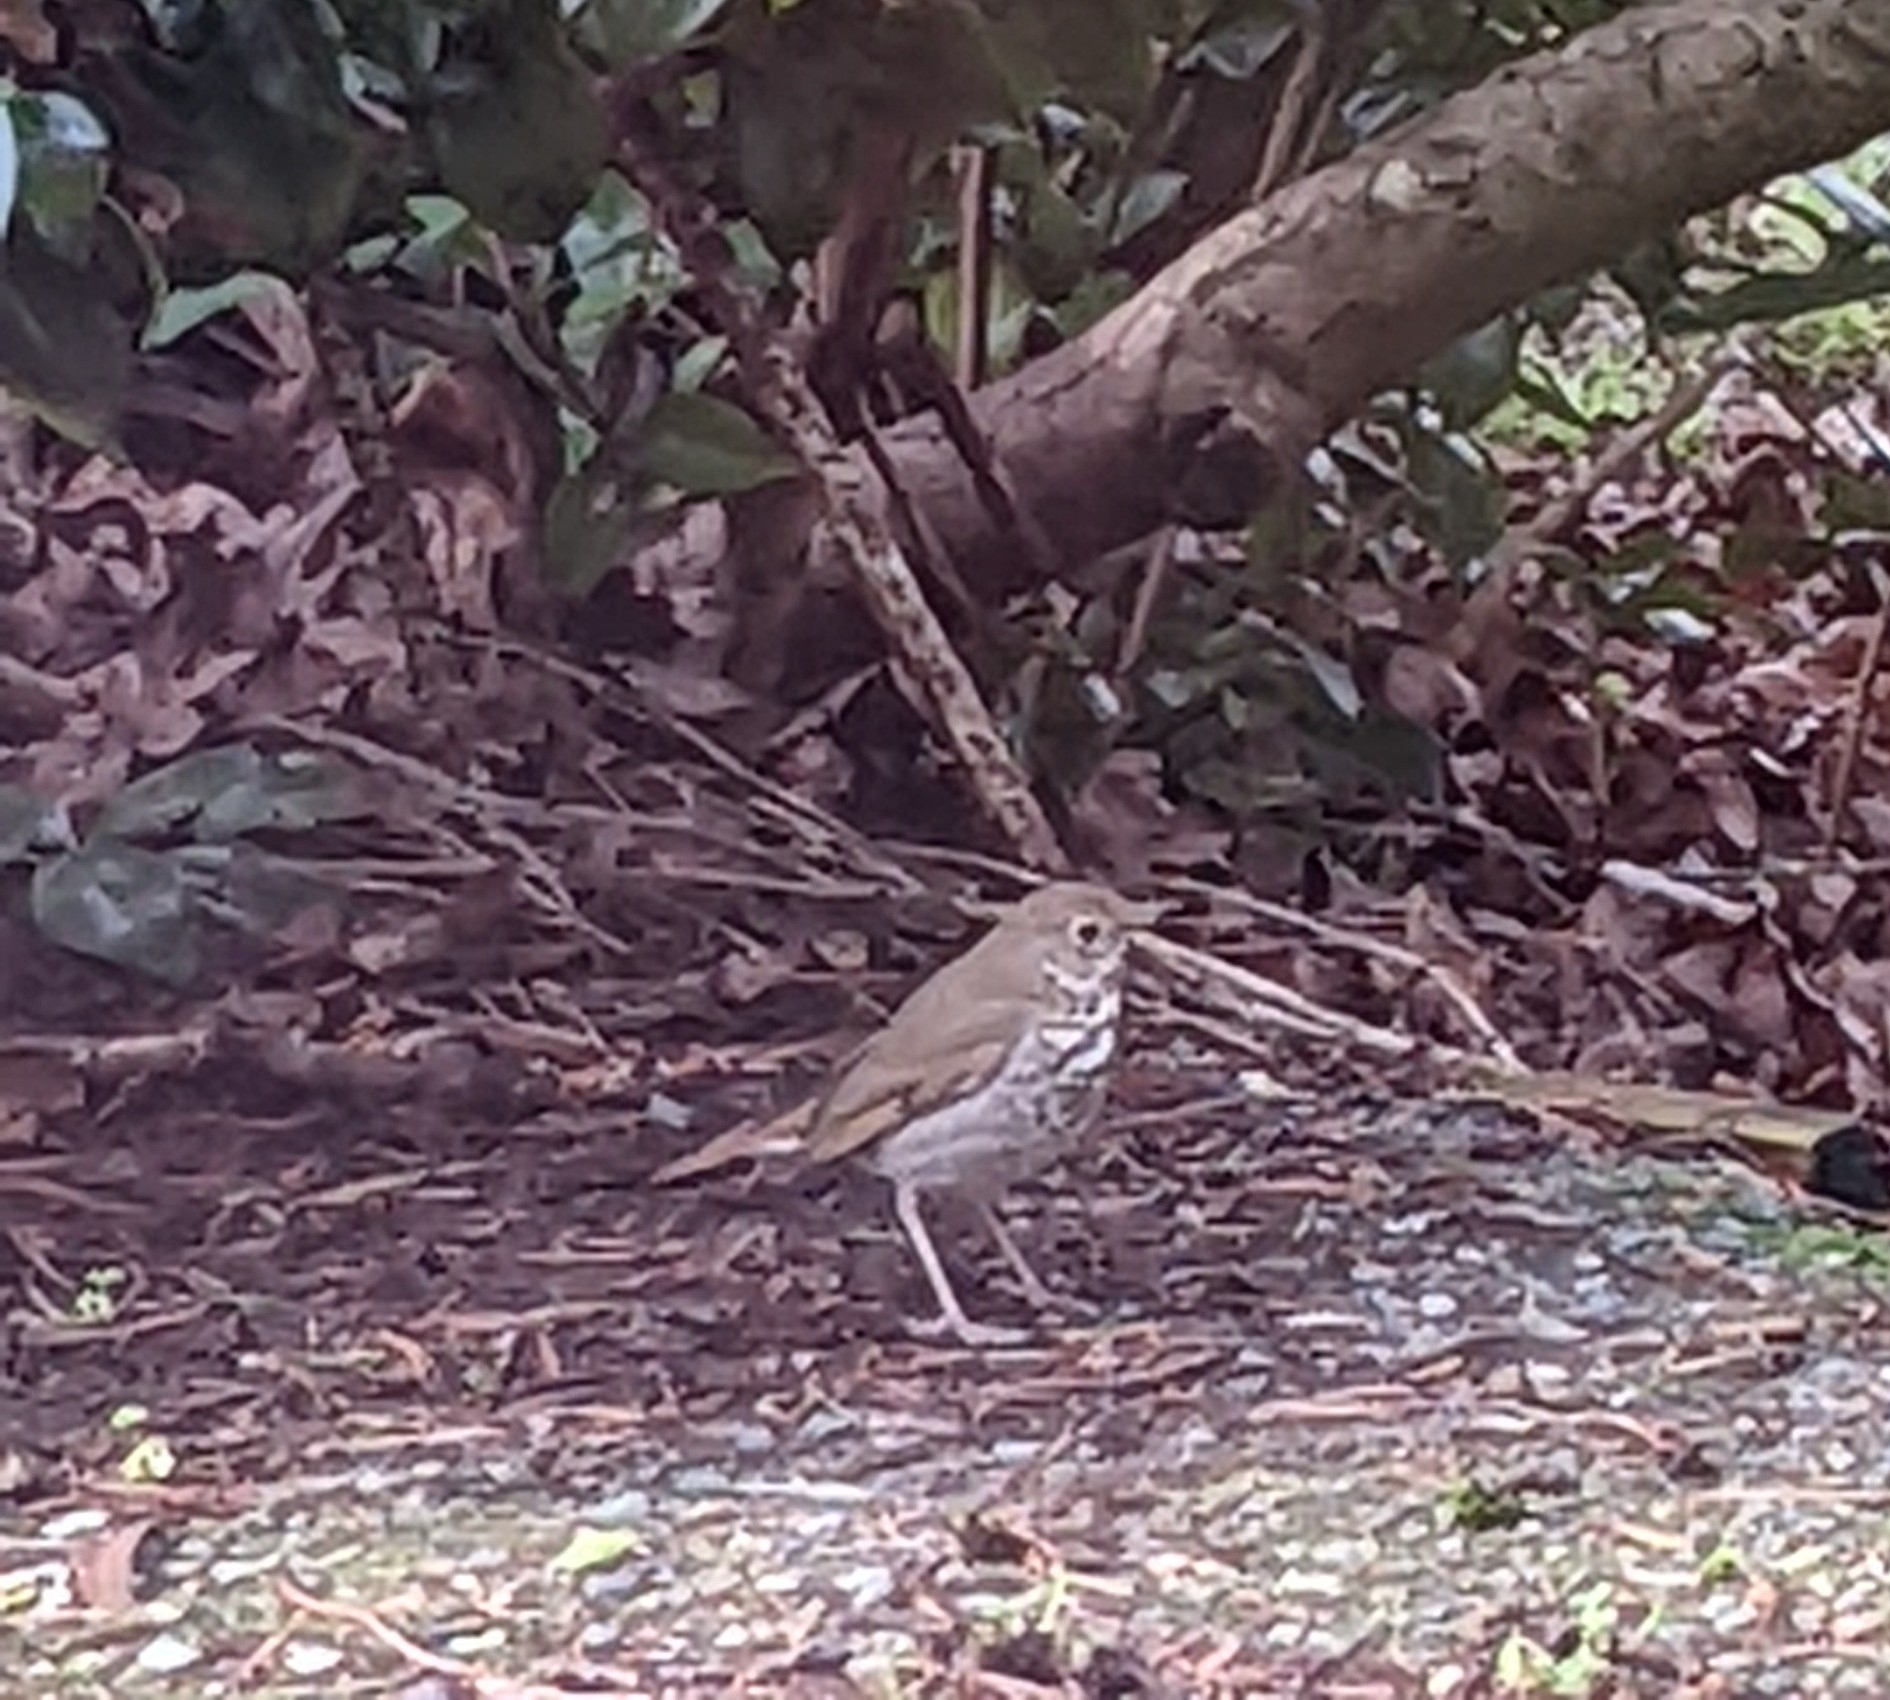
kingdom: Animalia
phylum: Chordata
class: Aves
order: Passeriformes
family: Turdidae
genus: Catharus
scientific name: Catharus guttatus
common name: Hermit thrush
